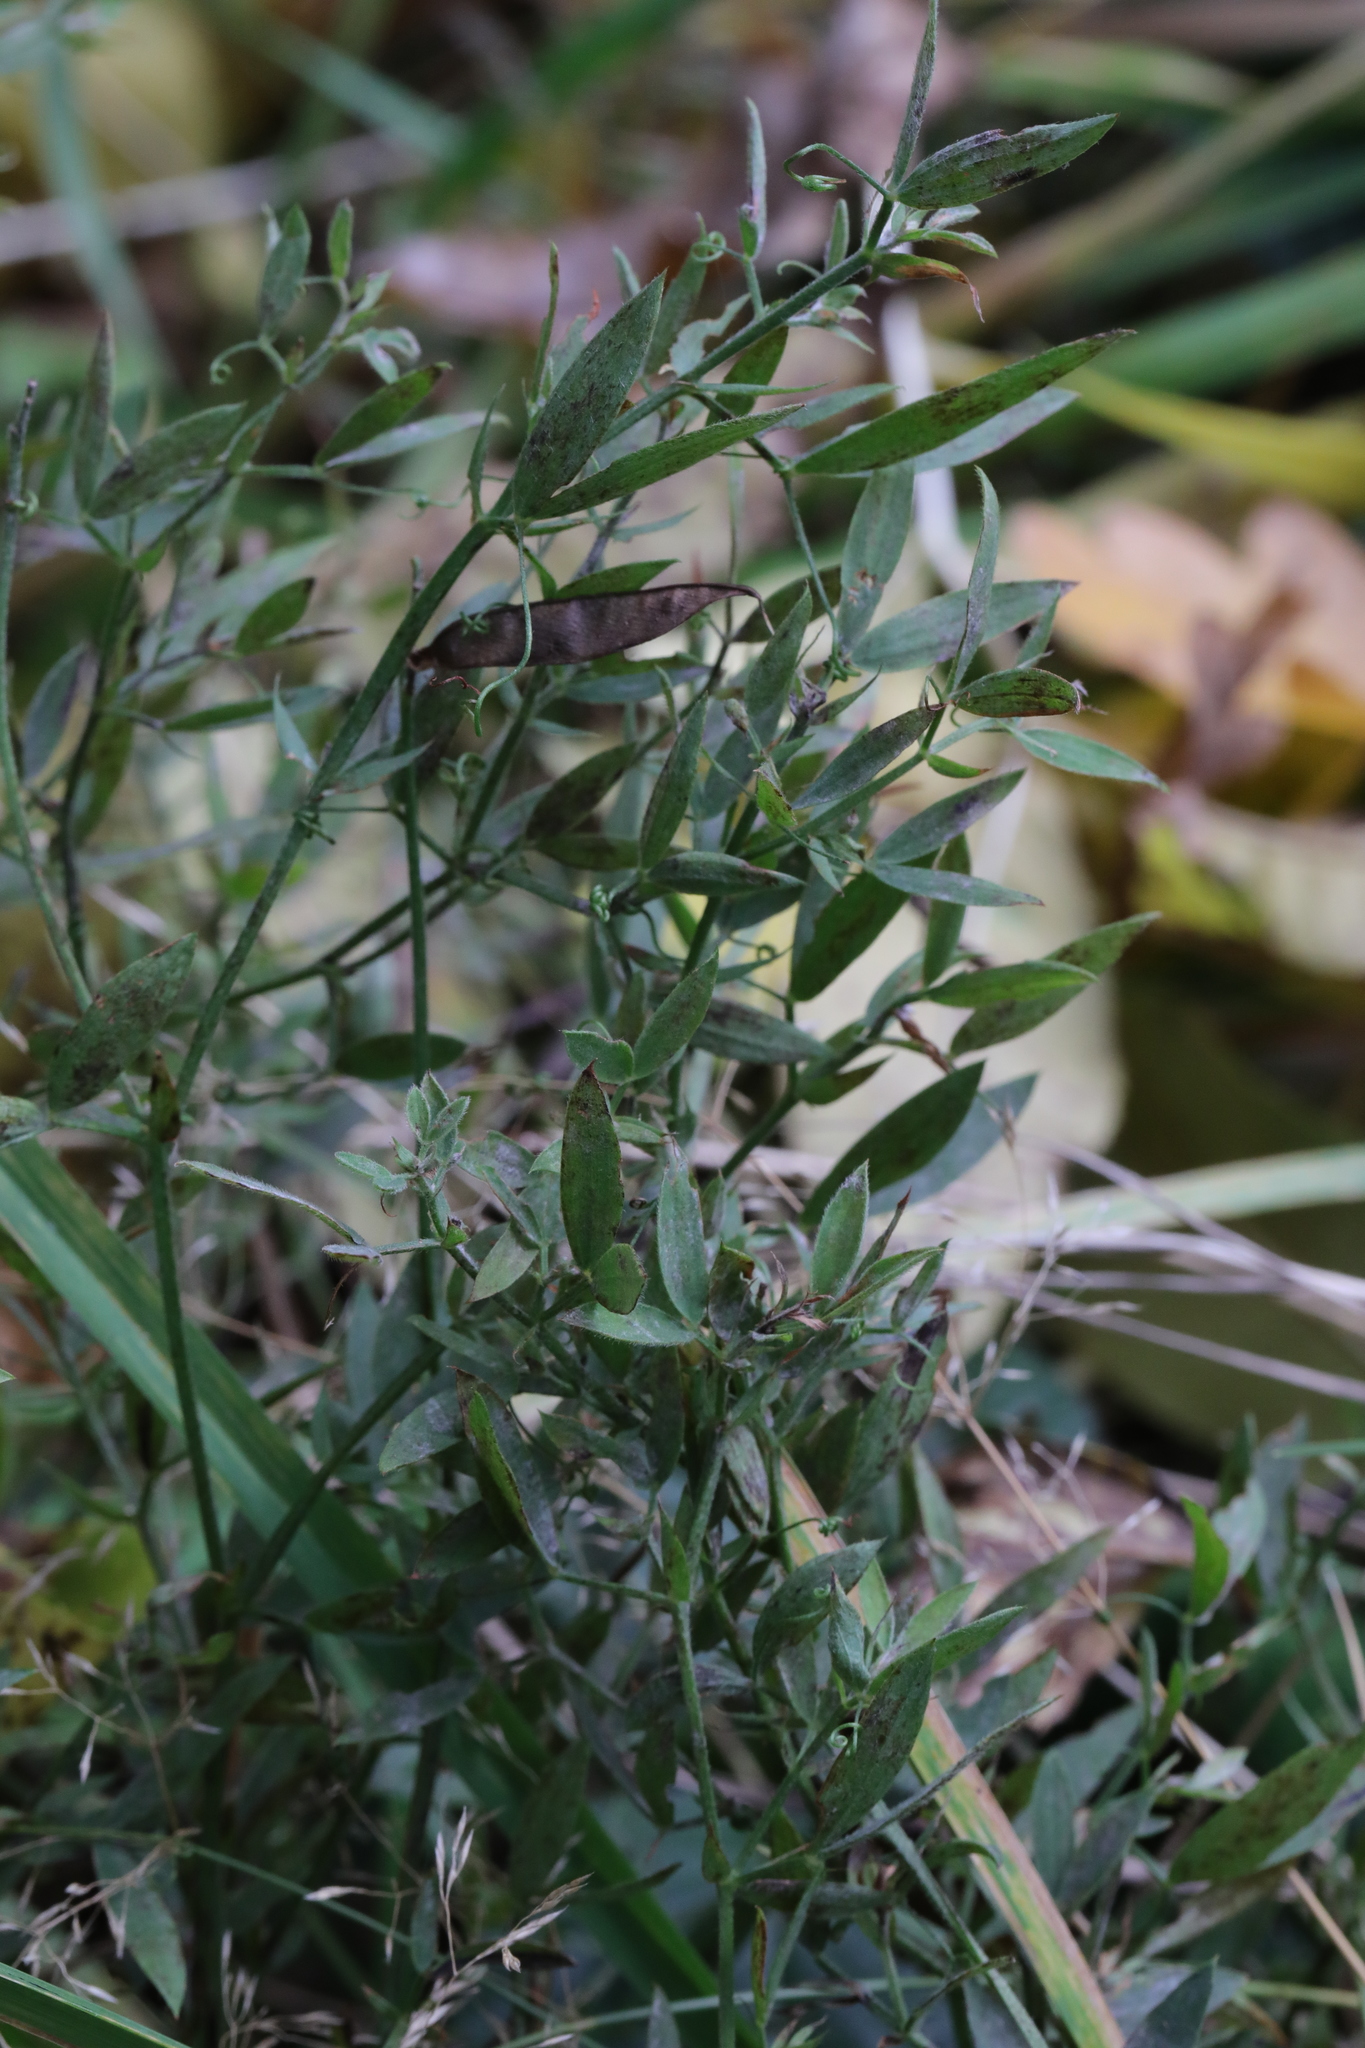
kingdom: Plantae
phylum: Tracheophyta
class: Magnoliopsida
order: Fabales
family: Fabaceae
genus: Lathyrus
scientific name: Lathyrus pratensis
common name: Meadow vetchling
